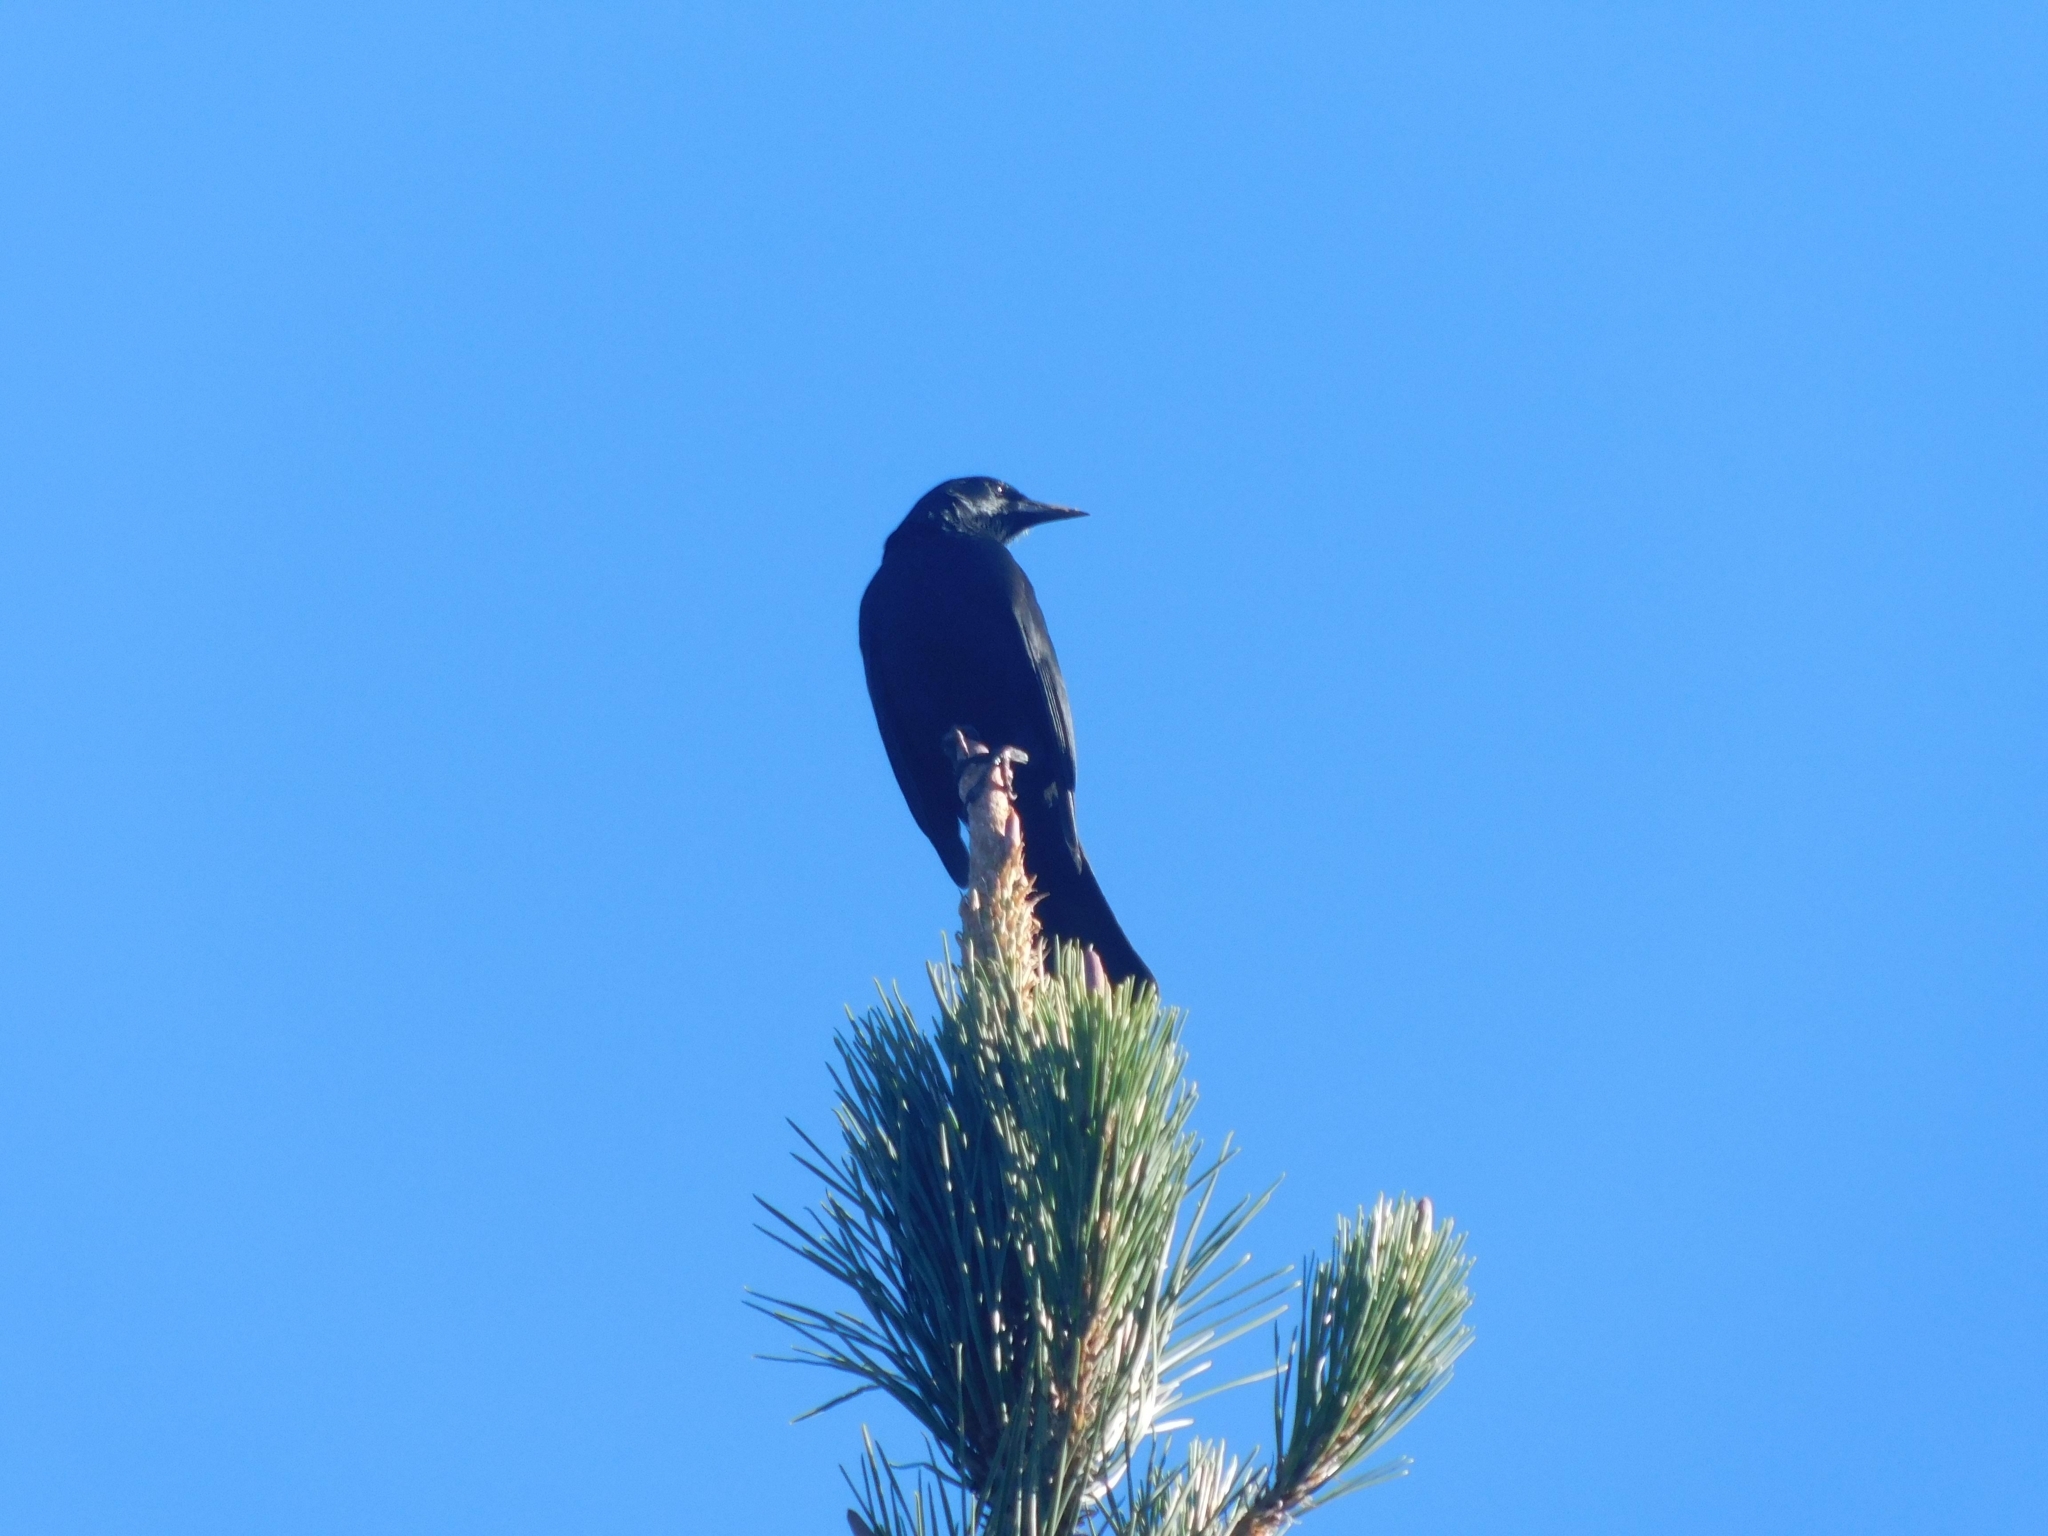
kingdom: Animalia
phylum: Chordata
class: Aves
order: Passeriformes
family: Icteridae
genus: Curaeus
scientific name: Curaeus curaeus
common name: Austral blackbird
